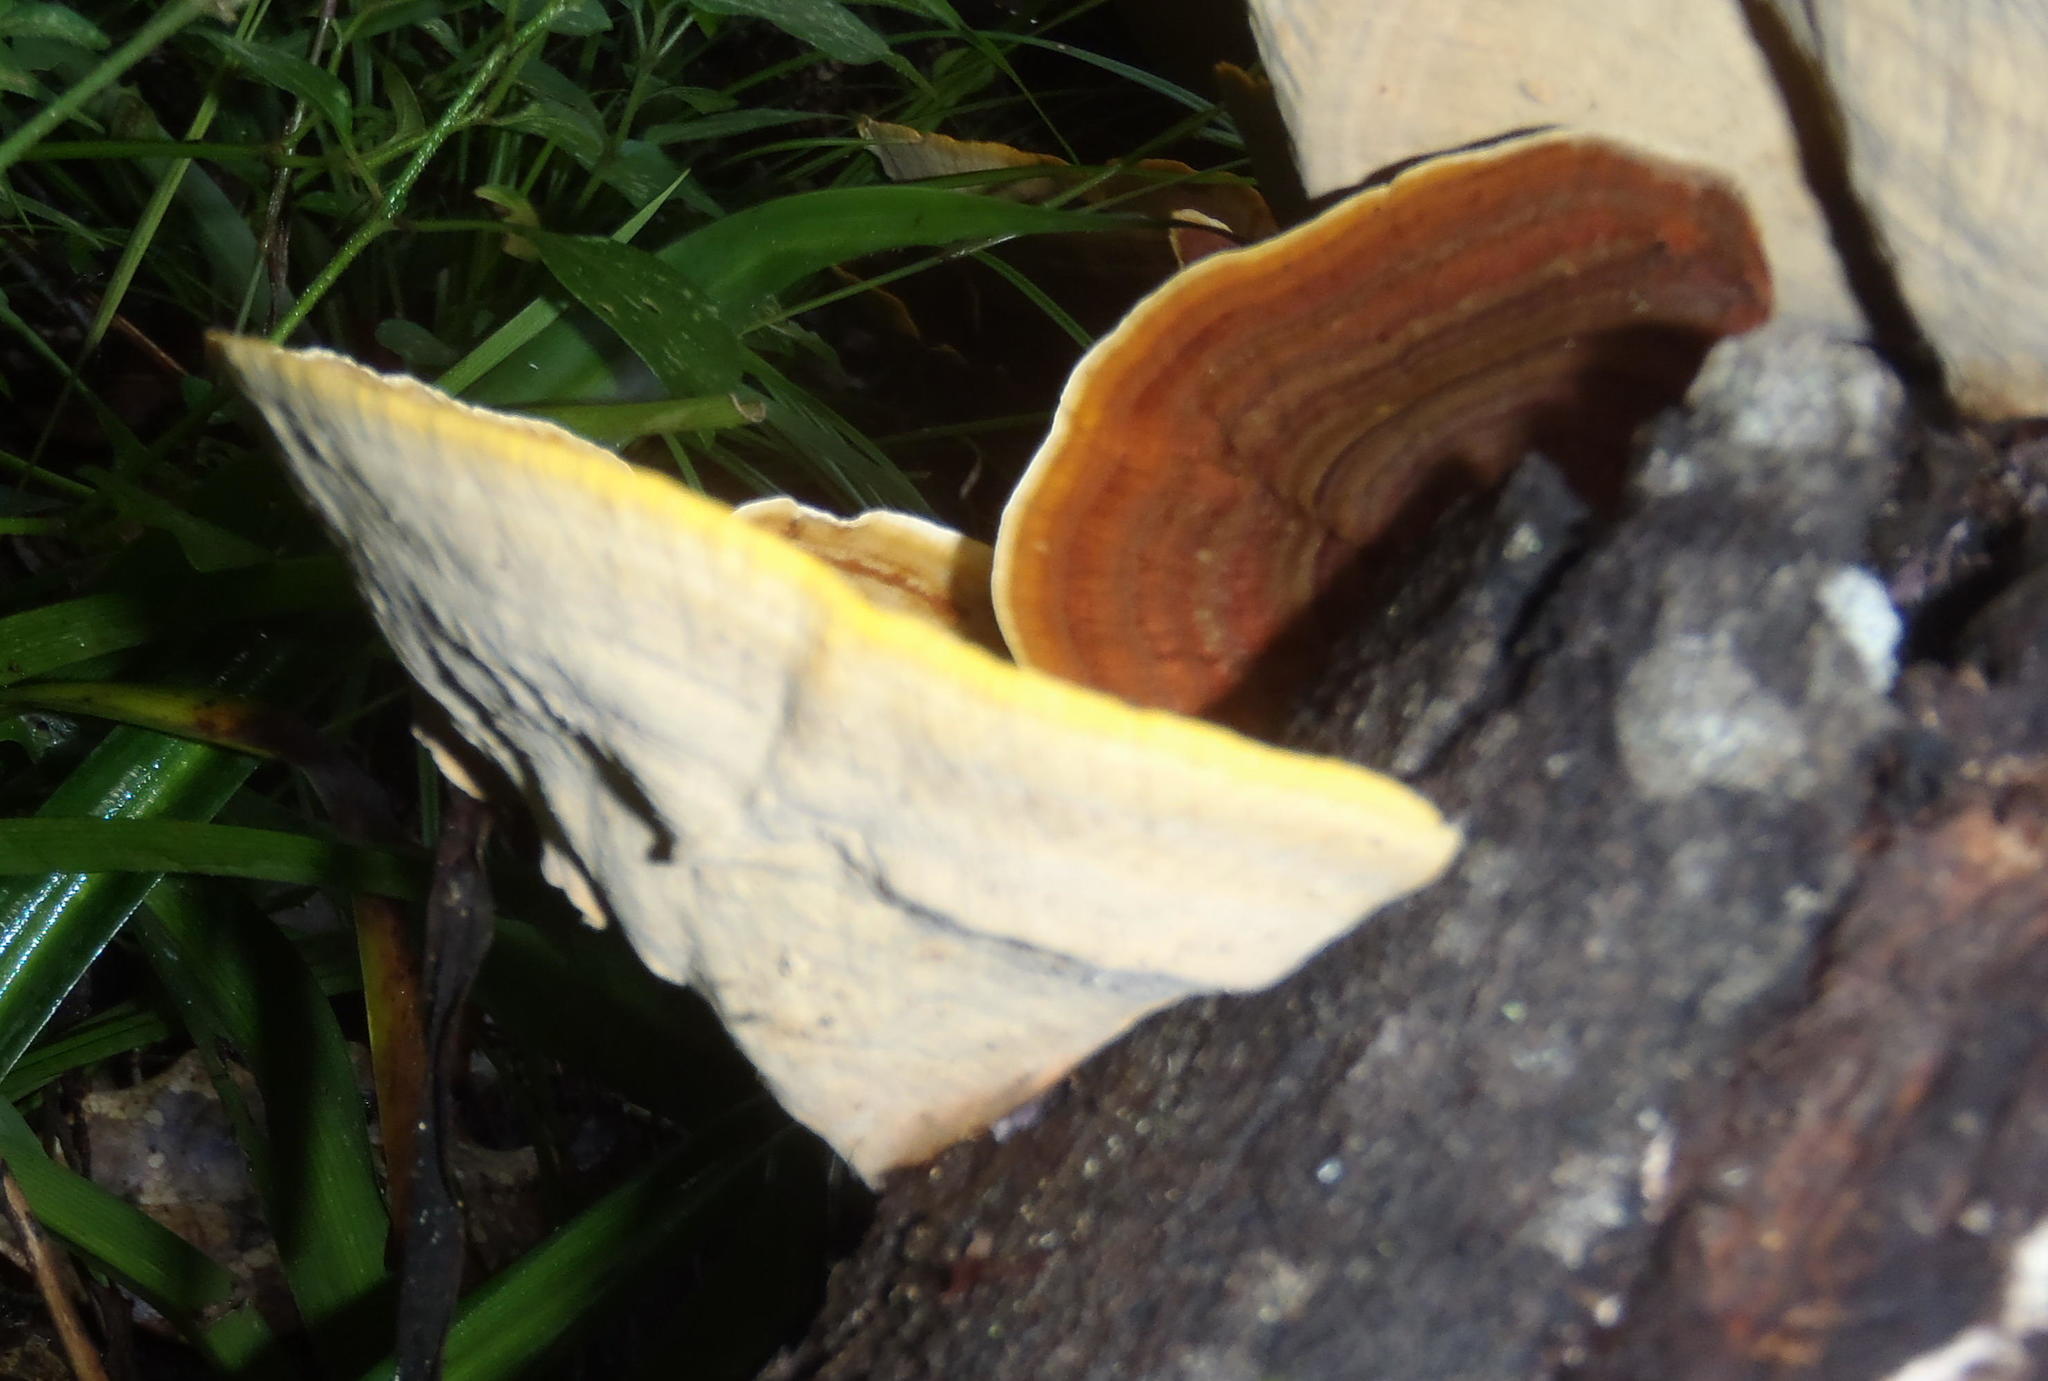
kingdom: Fungi
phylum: Basidiomycota
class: Agaricomycetes
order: Russulales
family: Stereaceae
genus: Stereum
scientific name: Stereum ostrea
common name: False turkeytail
